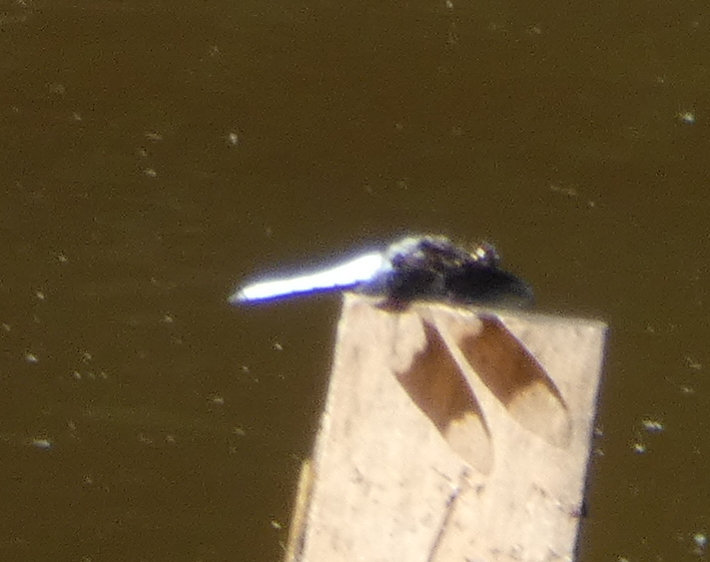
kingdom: Animalia
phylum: Arthropoda
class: Insecta
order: Odonata
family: Libellulidae
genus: Plathemis
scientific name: Plathemis lydia
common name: Common whitetail
